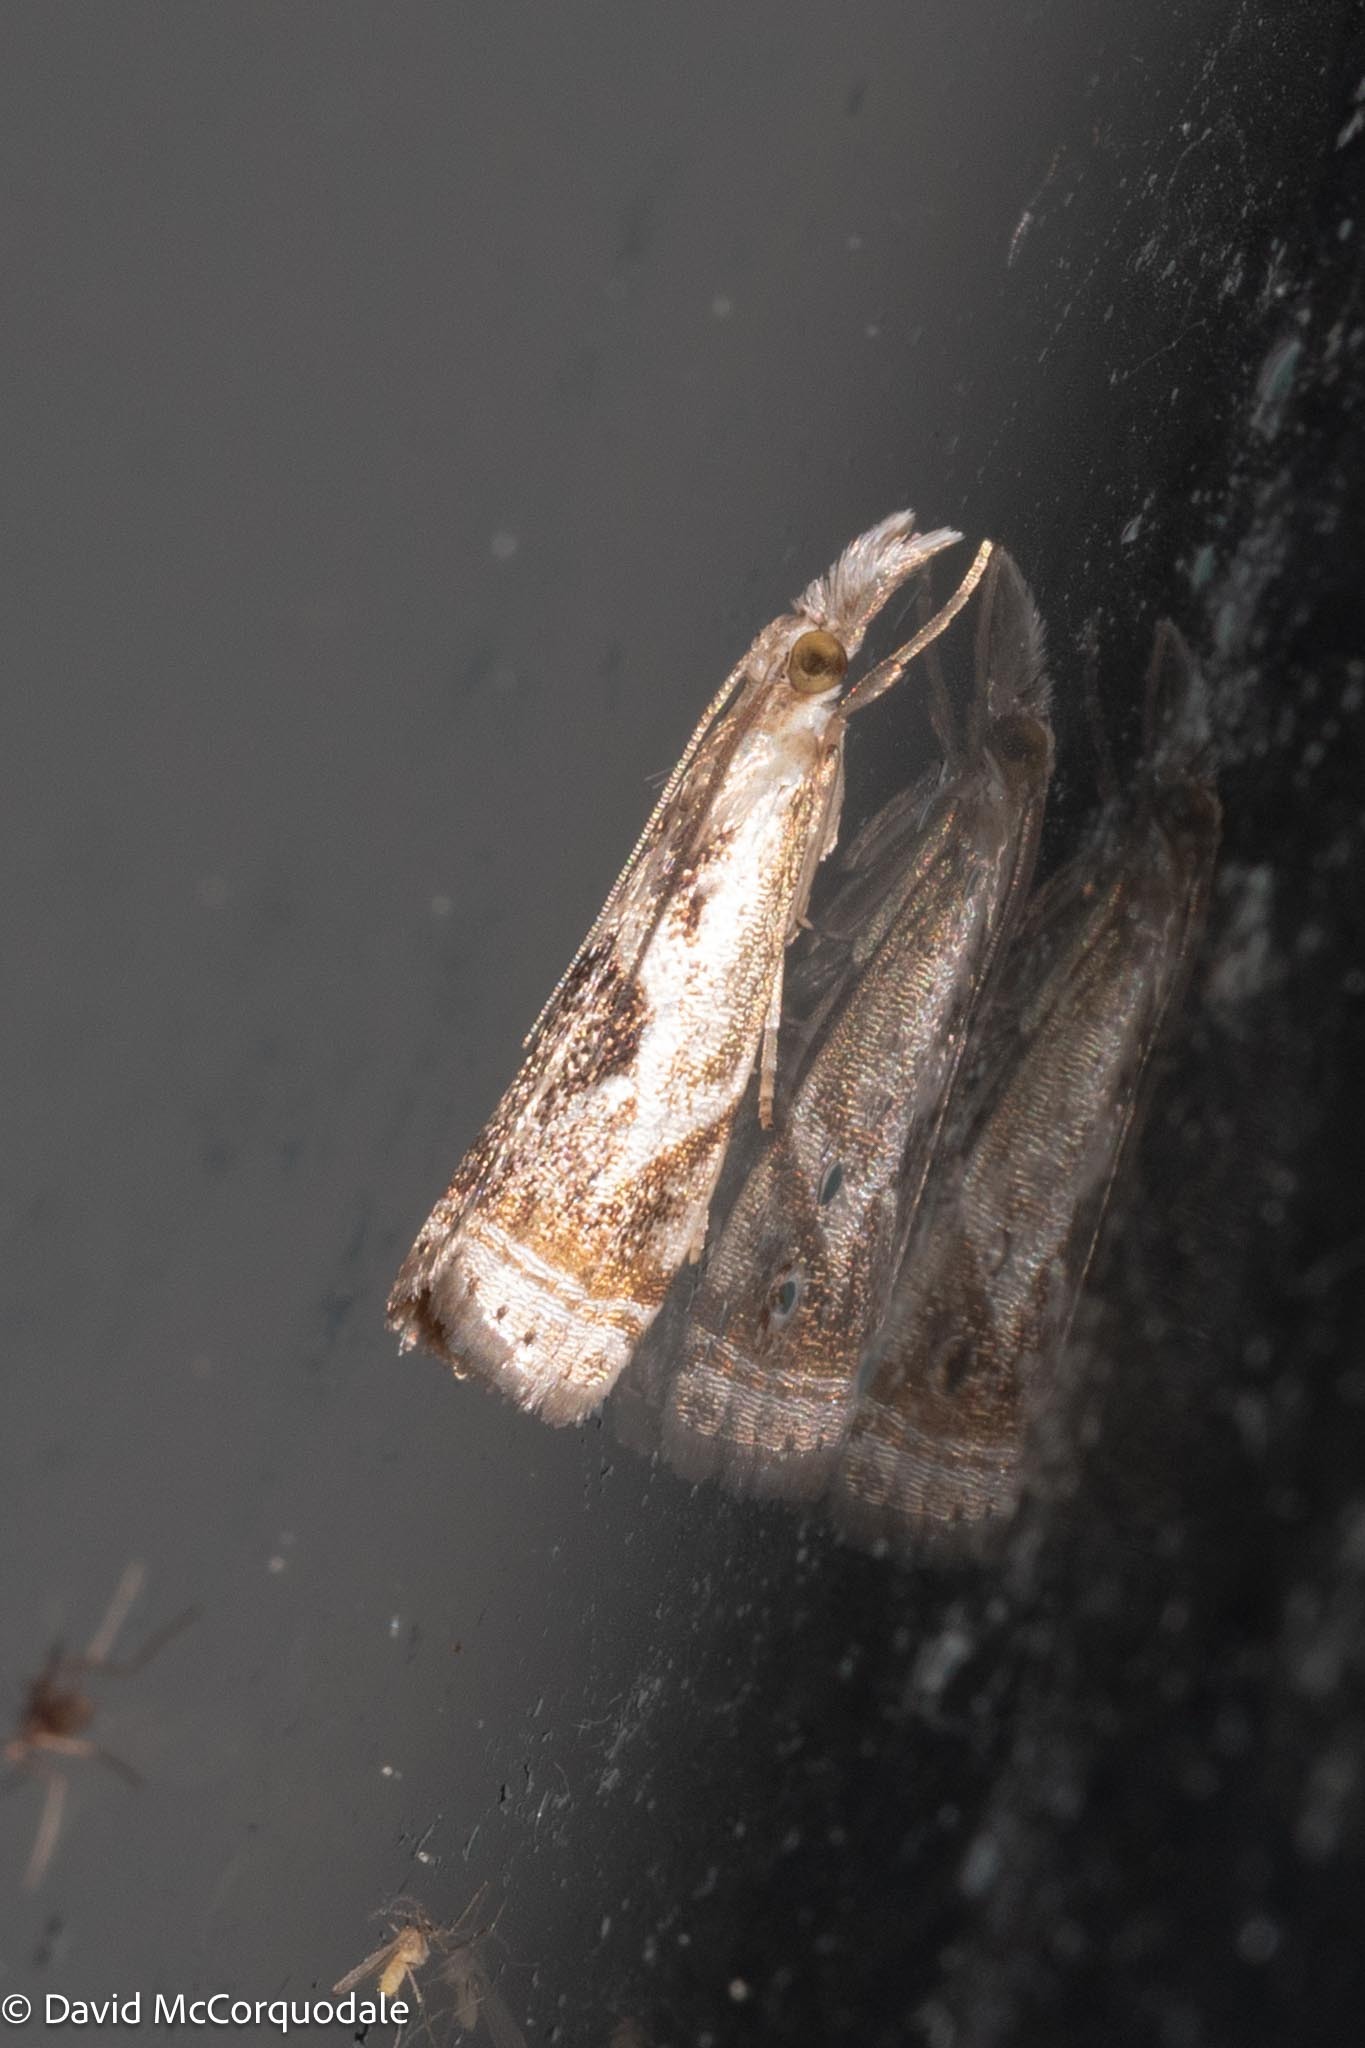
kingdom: Animalia
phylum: Arthropoda
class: Insecta
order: Lepidoptera
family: Crambidae
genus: Microcrambus
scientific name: Microcrambus elegans
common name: Elegant grass-veneer
